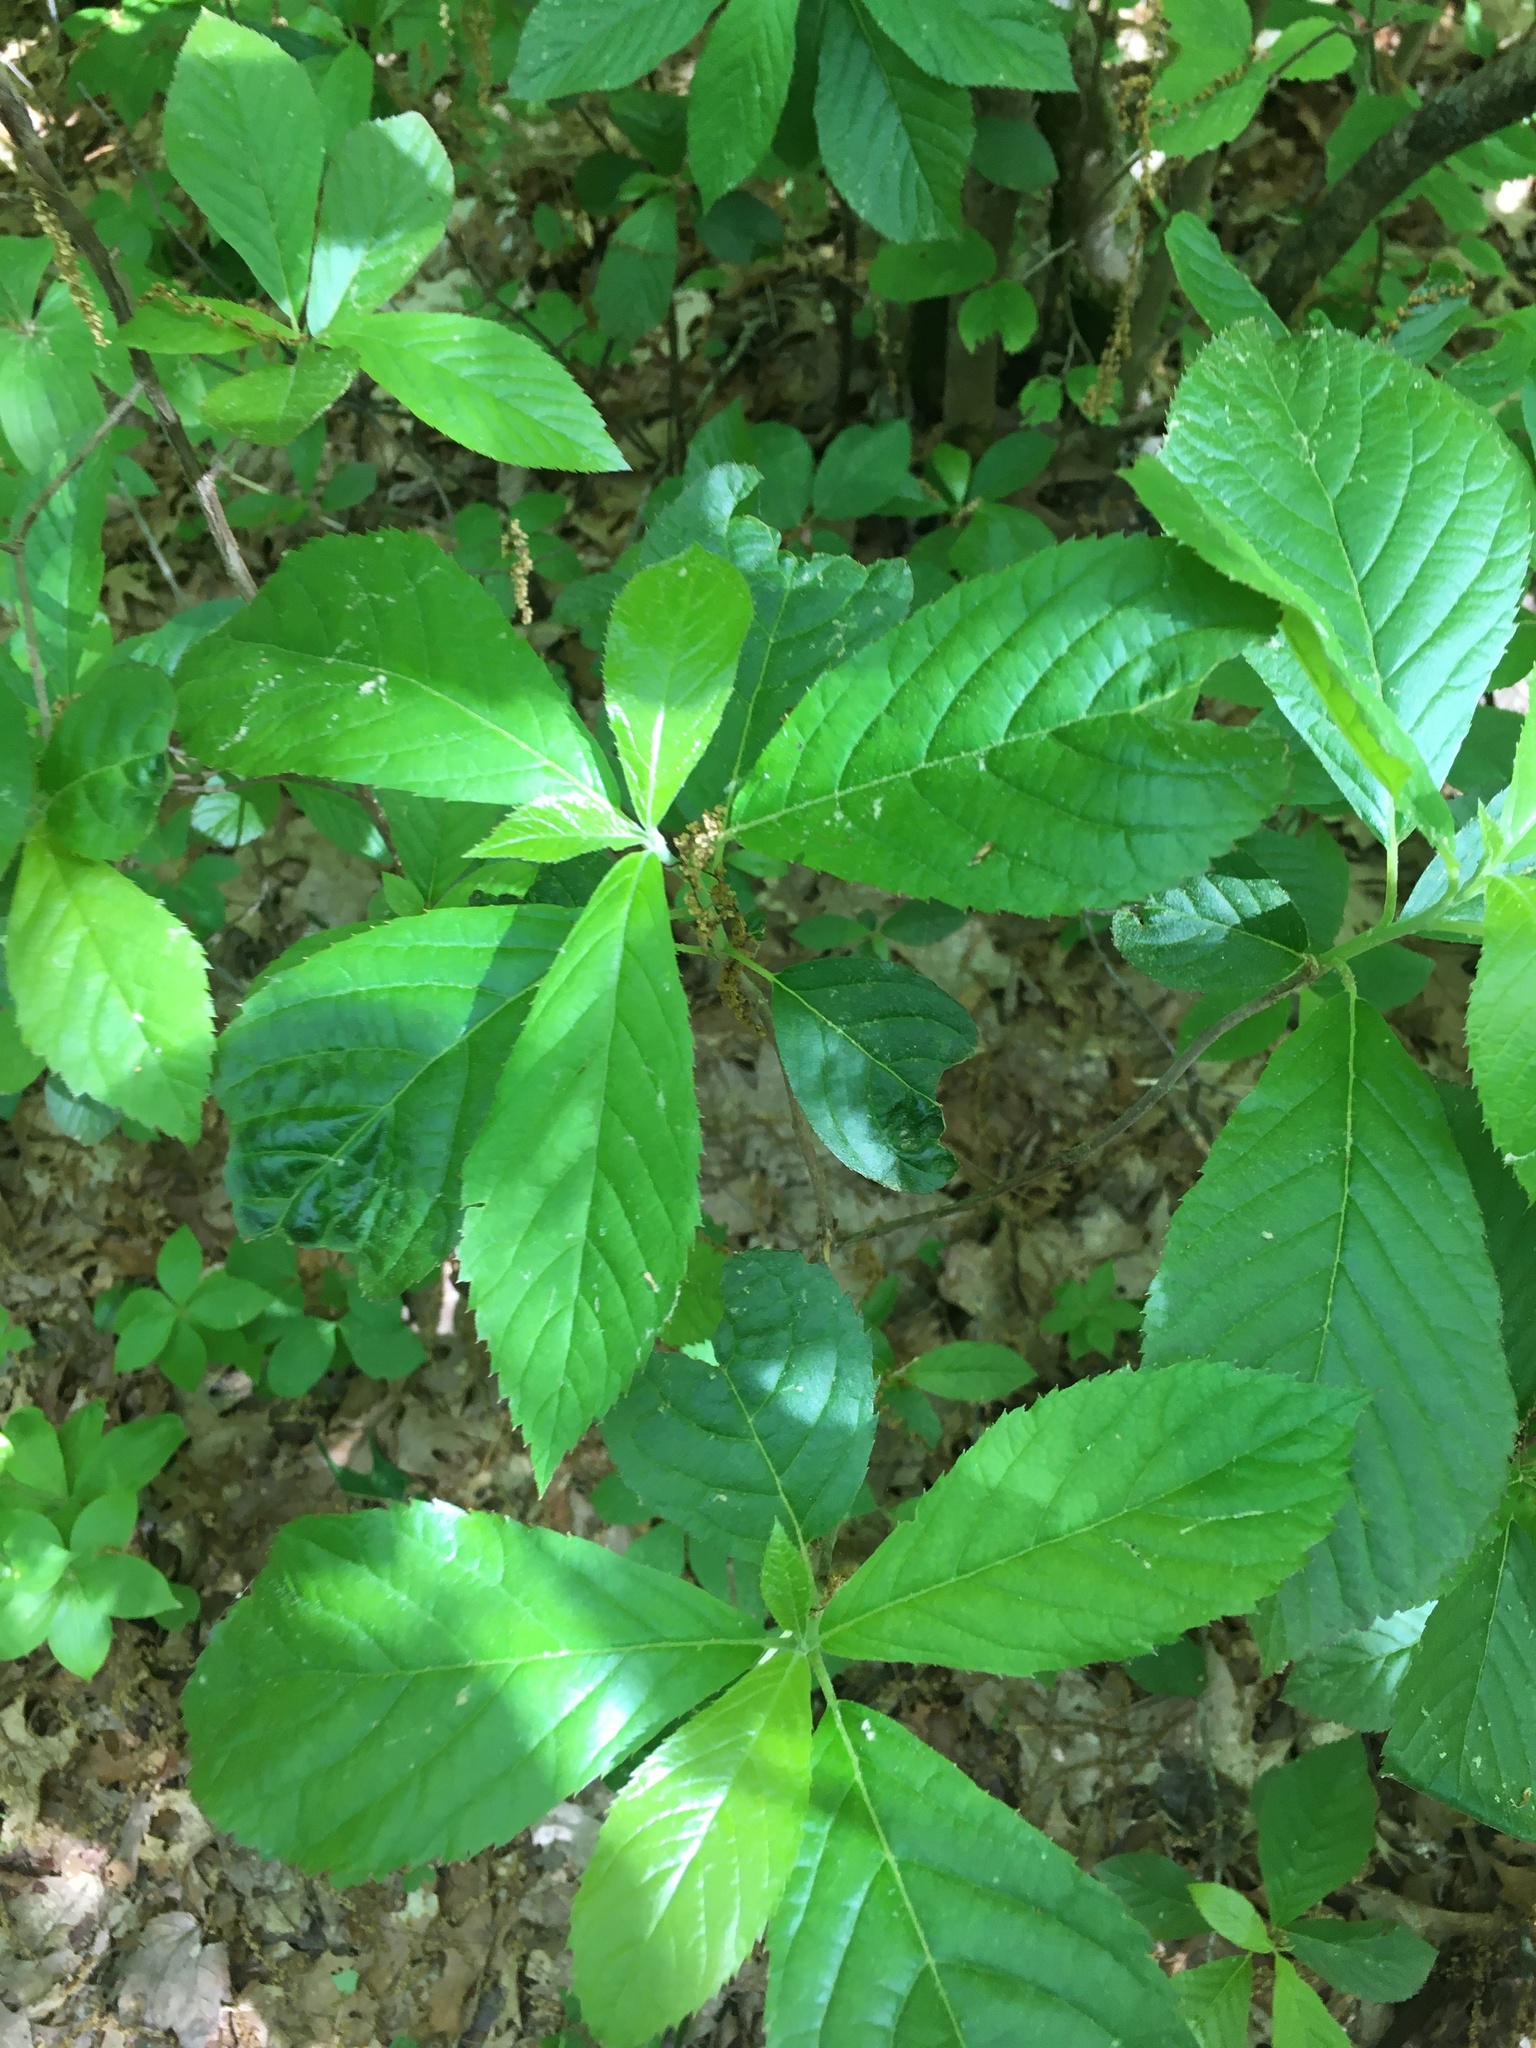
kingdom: Plantae
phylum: Tracheophyta
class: Magnoliopsida
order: Ericales
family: Clethraceae
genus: Clethra
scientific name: Clethra alnifolia
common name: Sweet pepperbush
